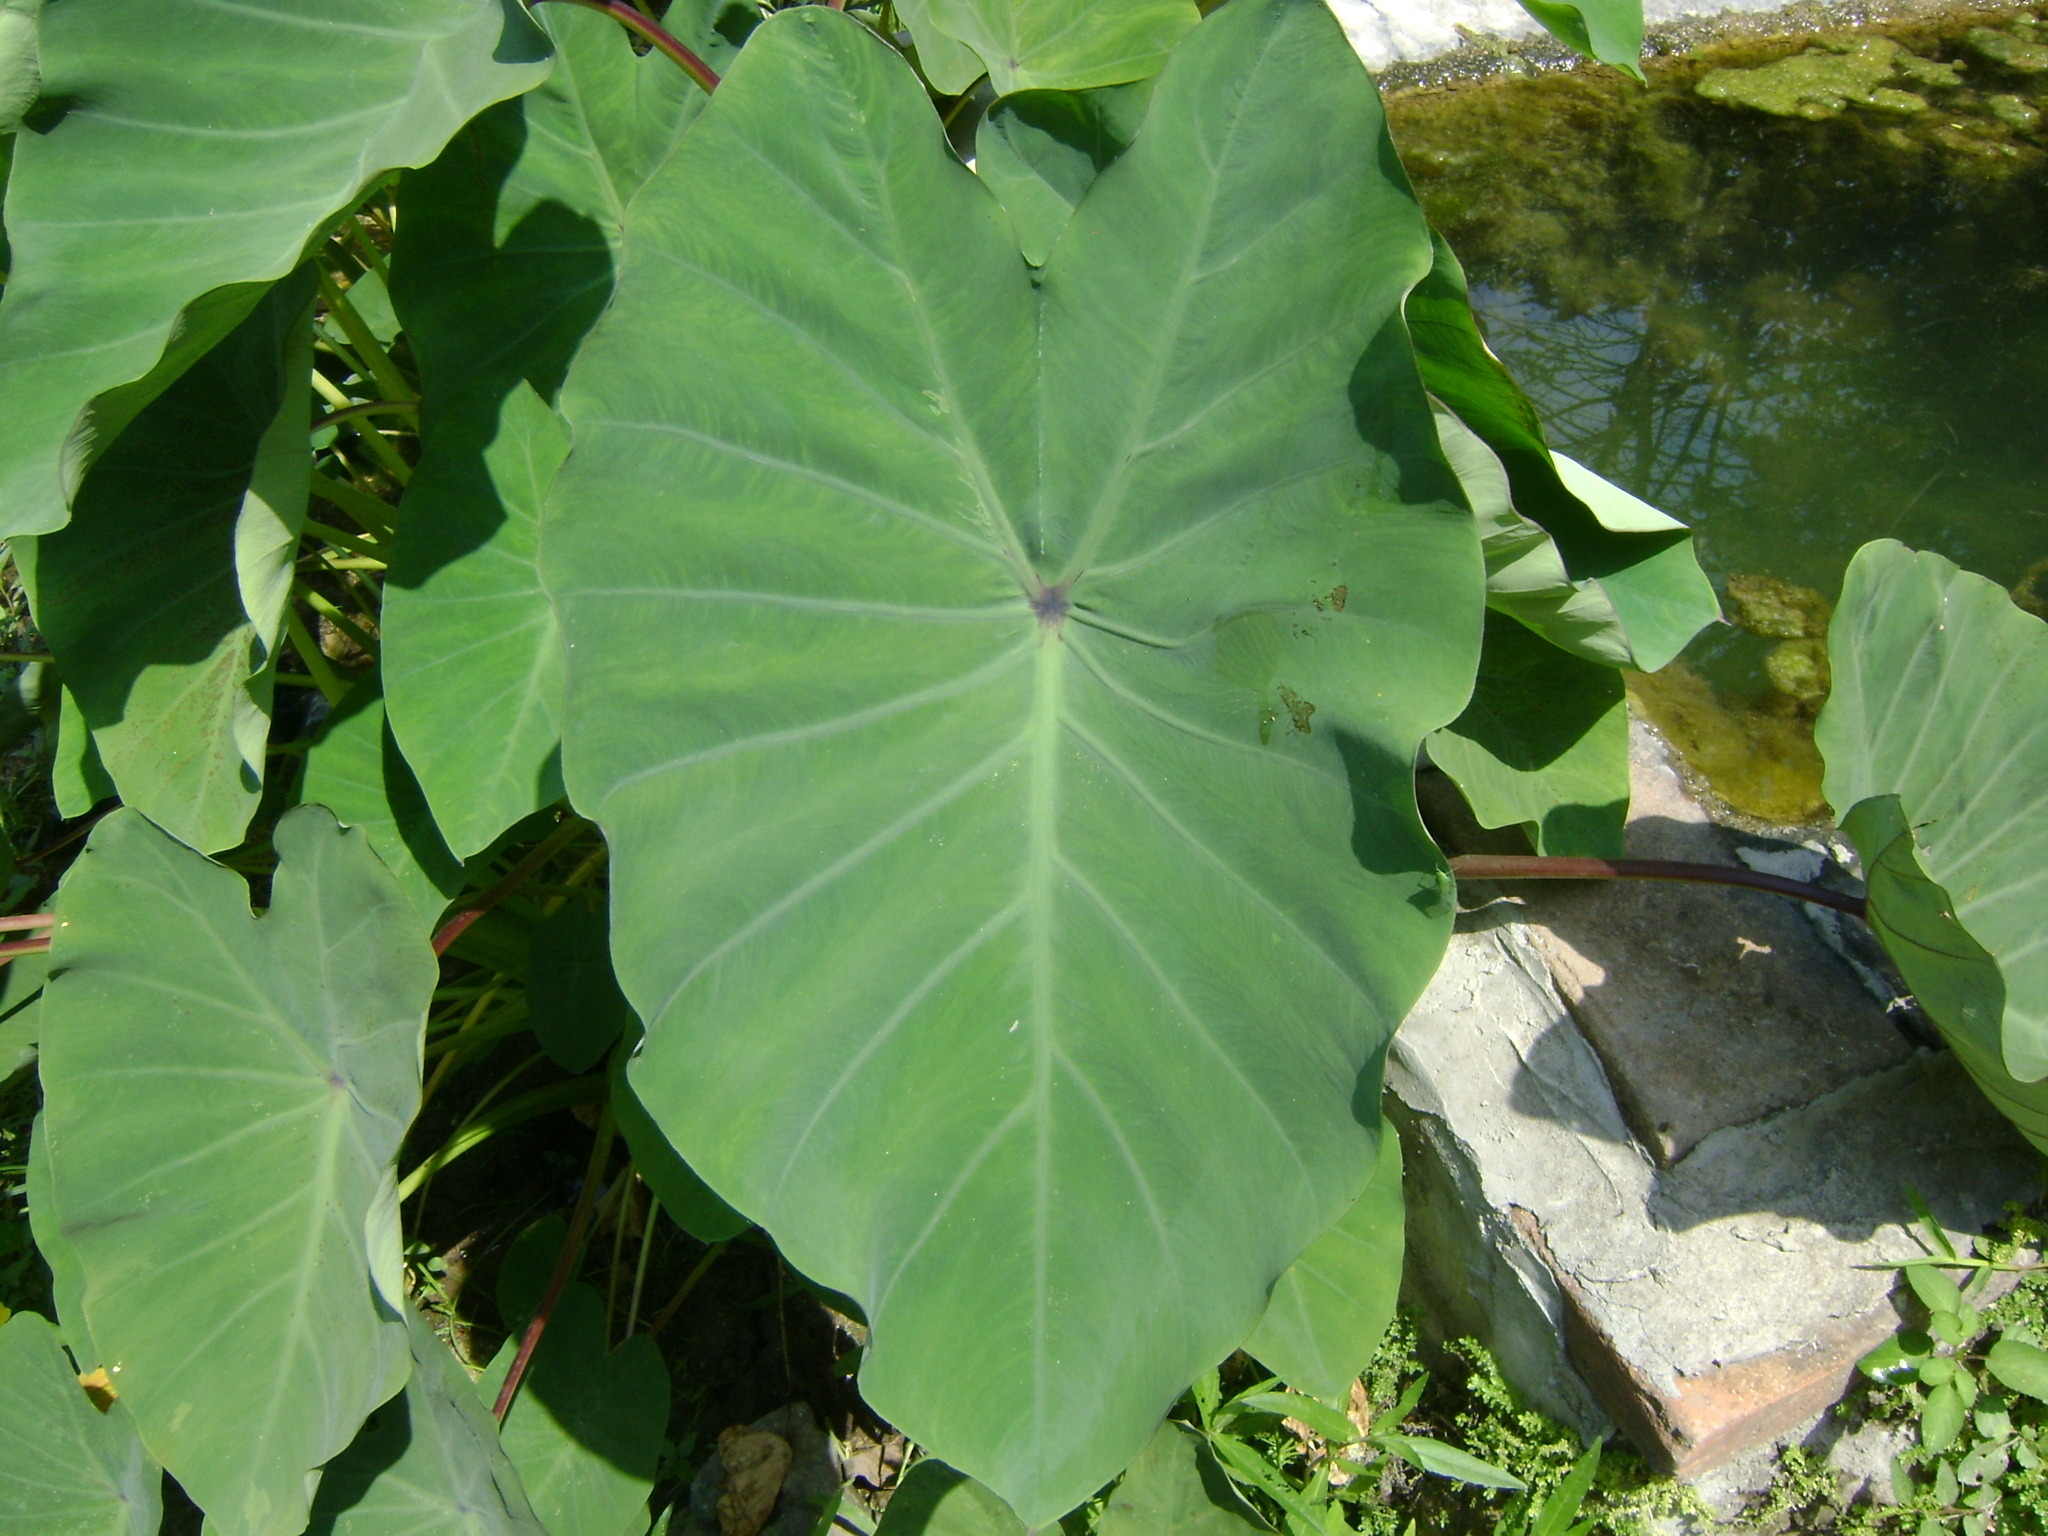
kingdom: Plantae
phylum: Tracheophyta
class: Liliopsida
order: Alismatales
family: Araceae
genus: Colocasia
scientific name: Colocasia esculenta
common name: Taro
